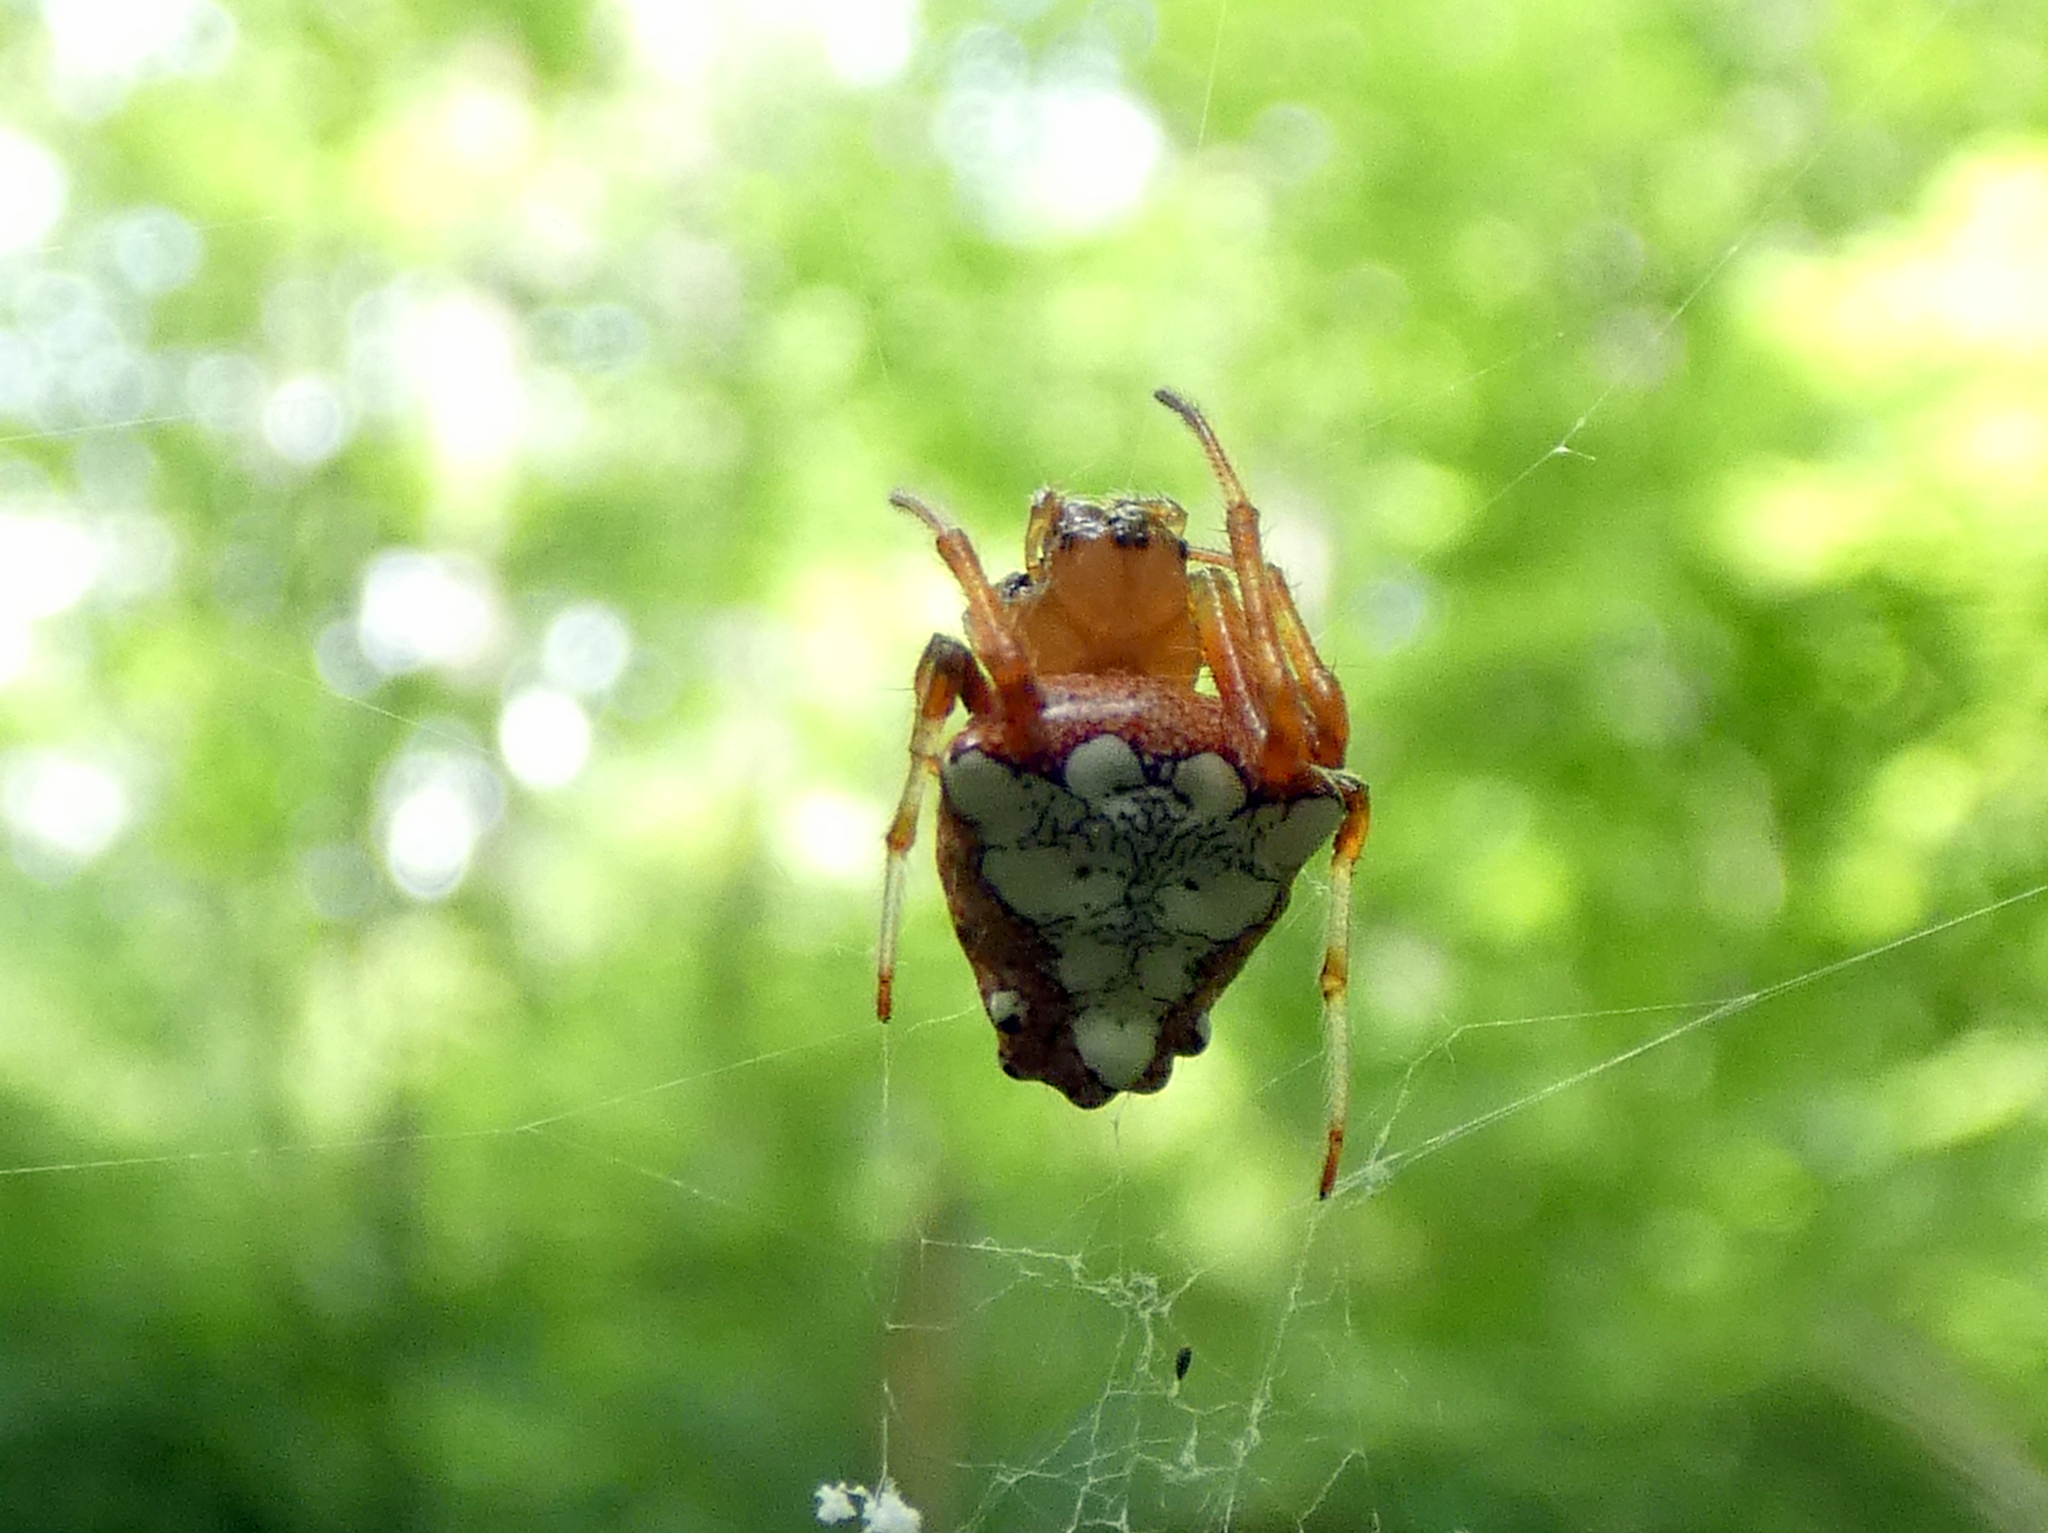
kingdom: Animalia
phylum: Arthropoda
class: Arachnida
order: Araneae
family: Araneidae
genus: Verrucosa
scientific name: Verrucosa arenata
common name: Orb weavers
